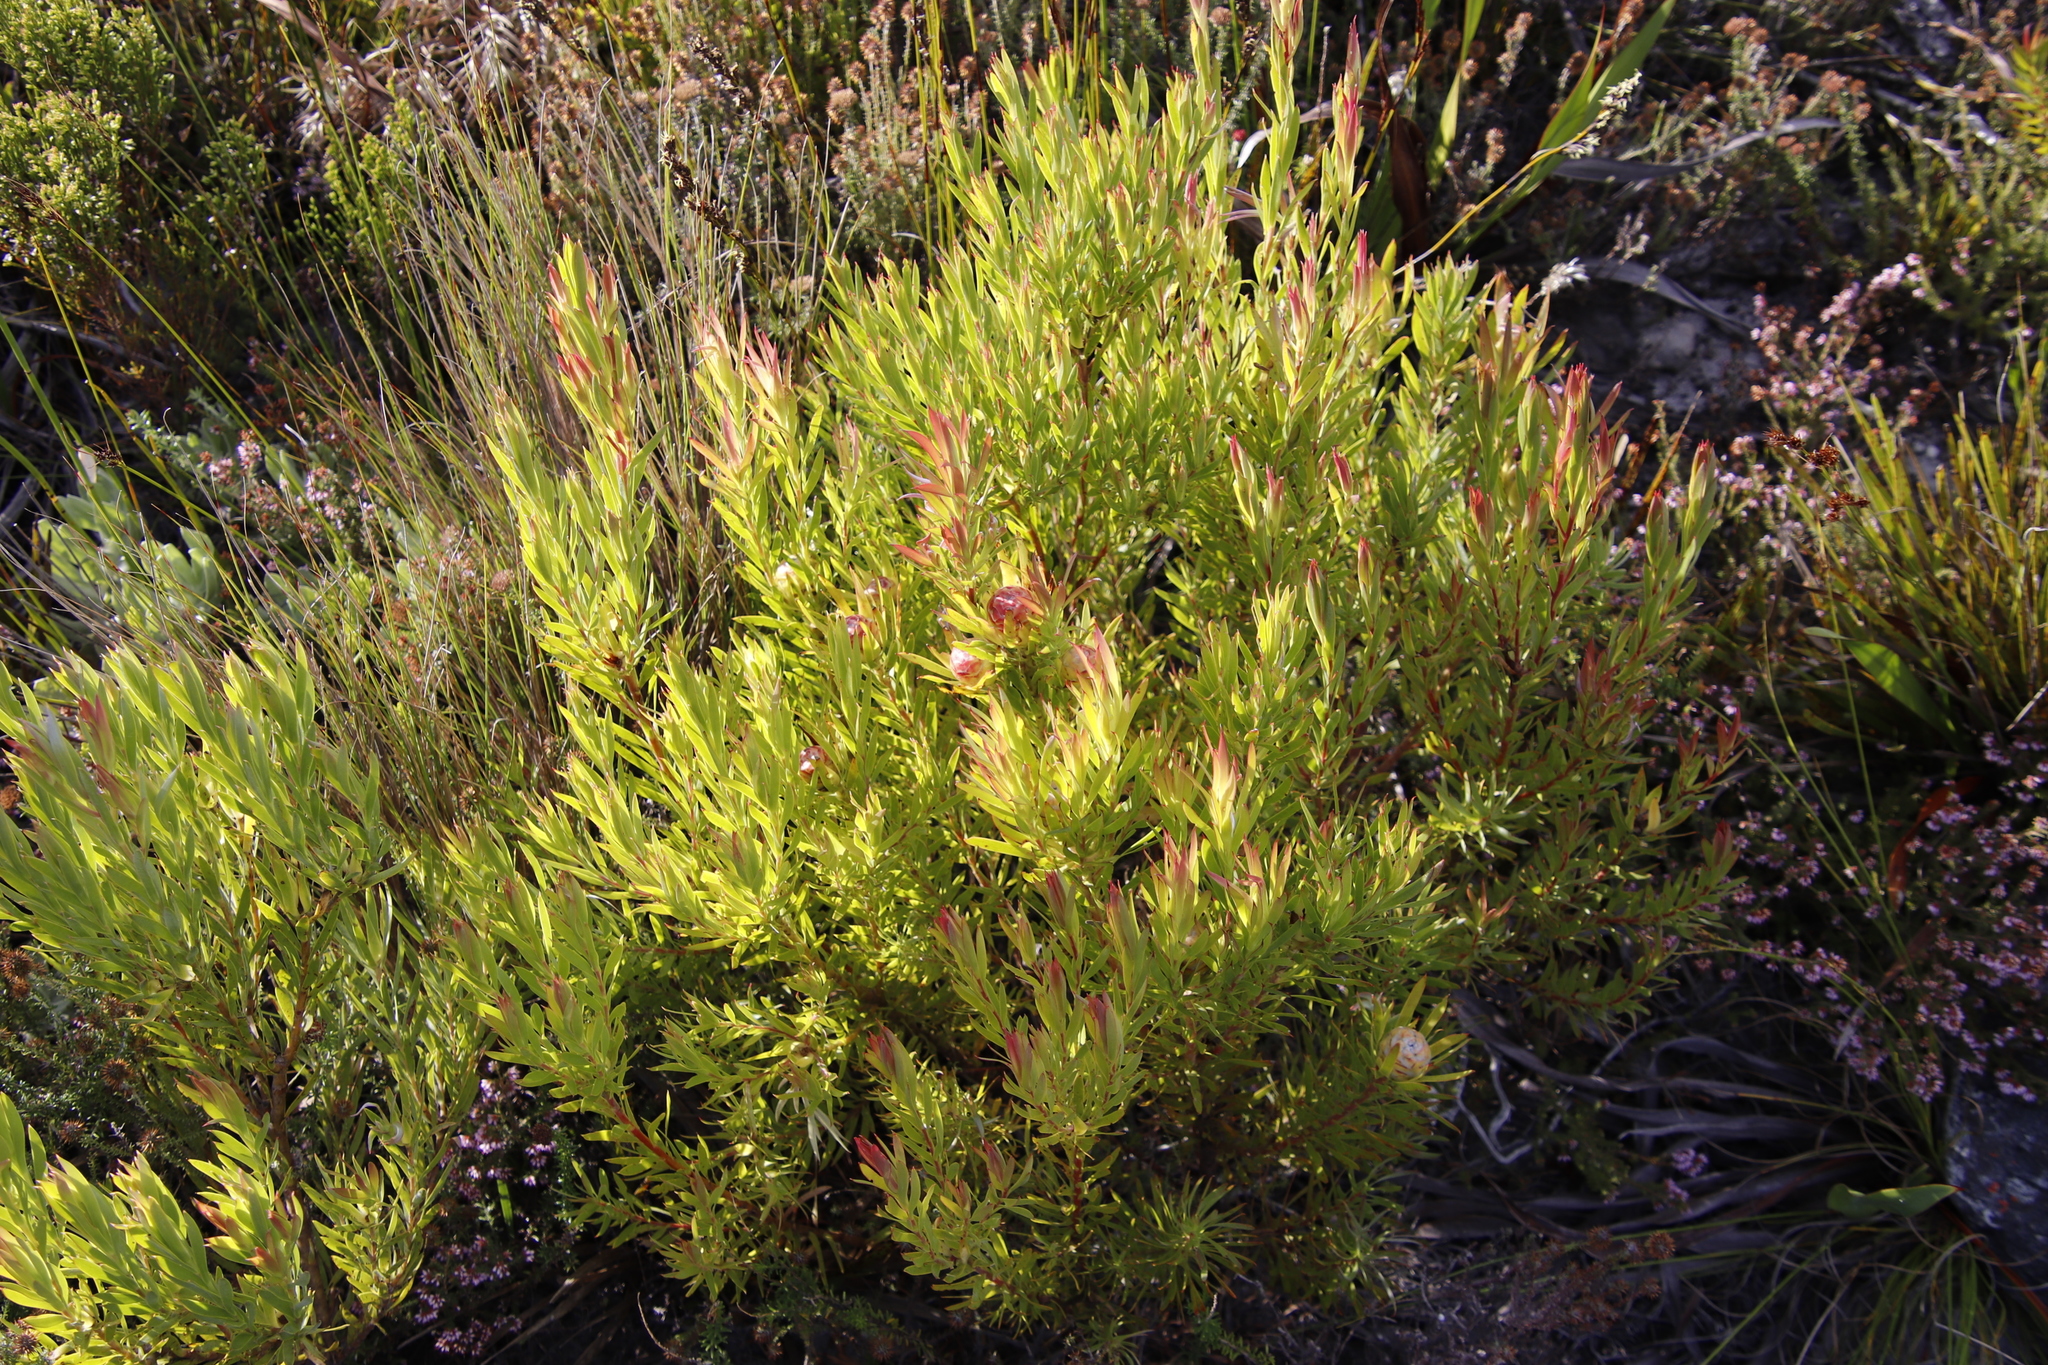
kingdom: Plantae
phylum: Tracheophyta
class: Magnoliopsida
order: Proteales
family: Proteaceae
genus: Leucadendron
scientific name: Leucadendron xanthoconus
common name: Sickle-leaf conebush
